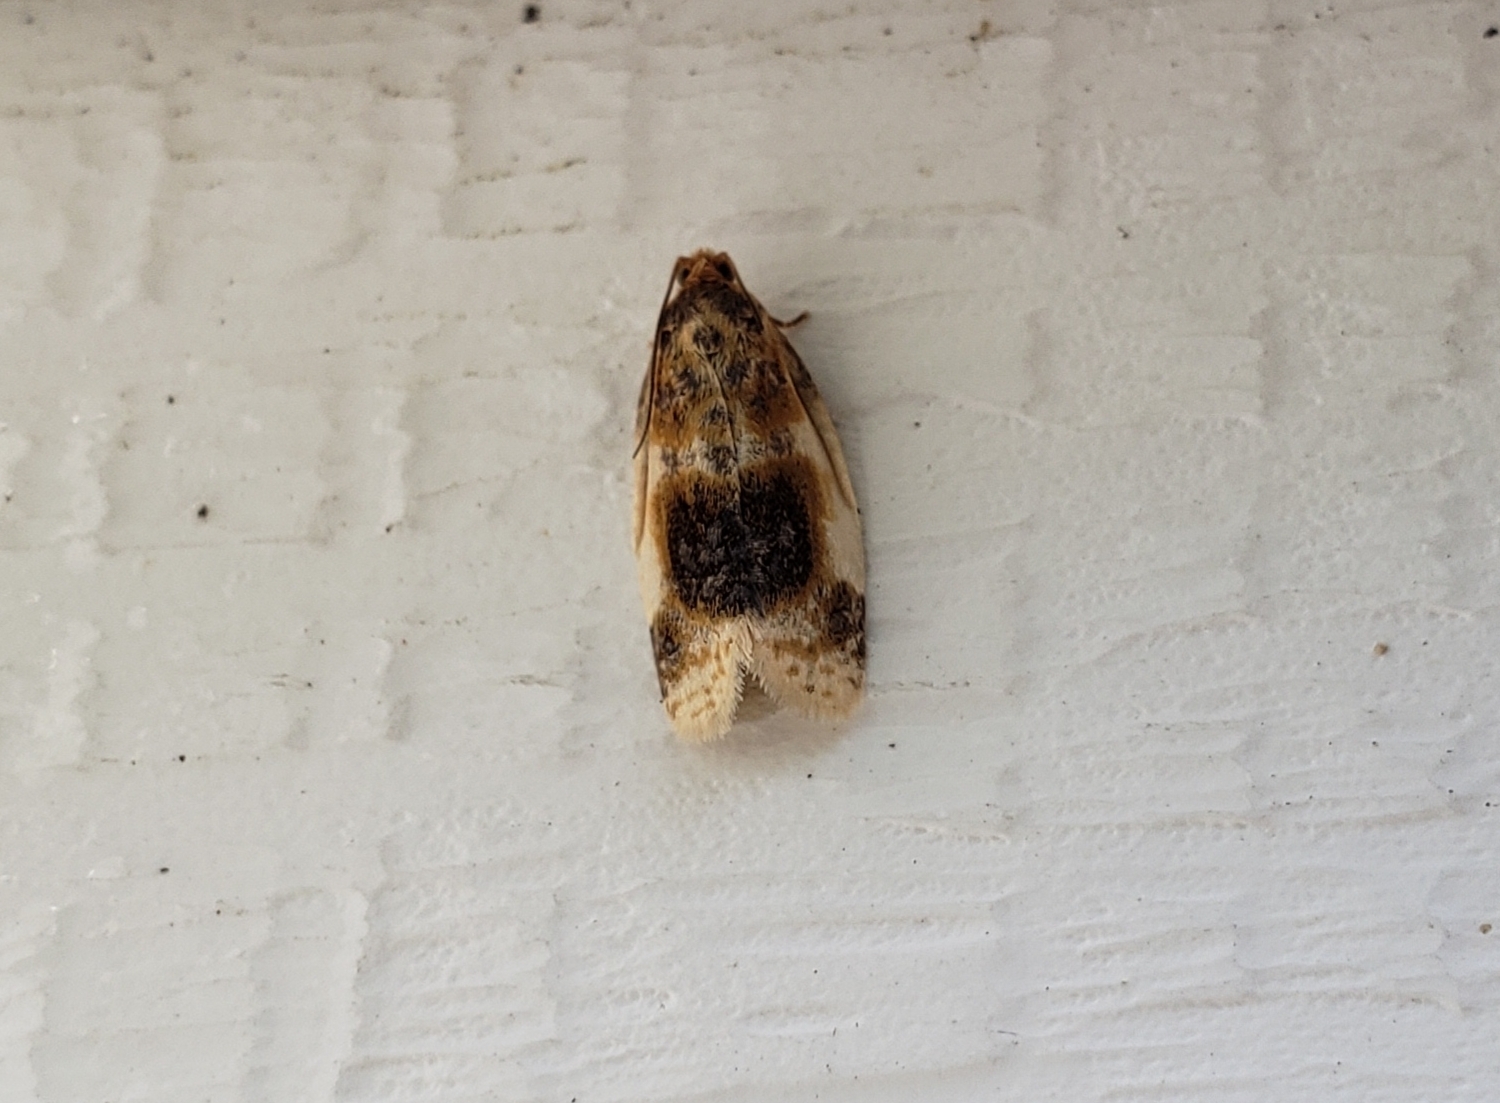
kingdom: Animalia
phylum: Arthropoda
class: Insecta
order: Lepidoptera
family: Tortricidae
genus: Clepsis
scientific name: Clepsis melaleucanus
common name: American apple tortrix
